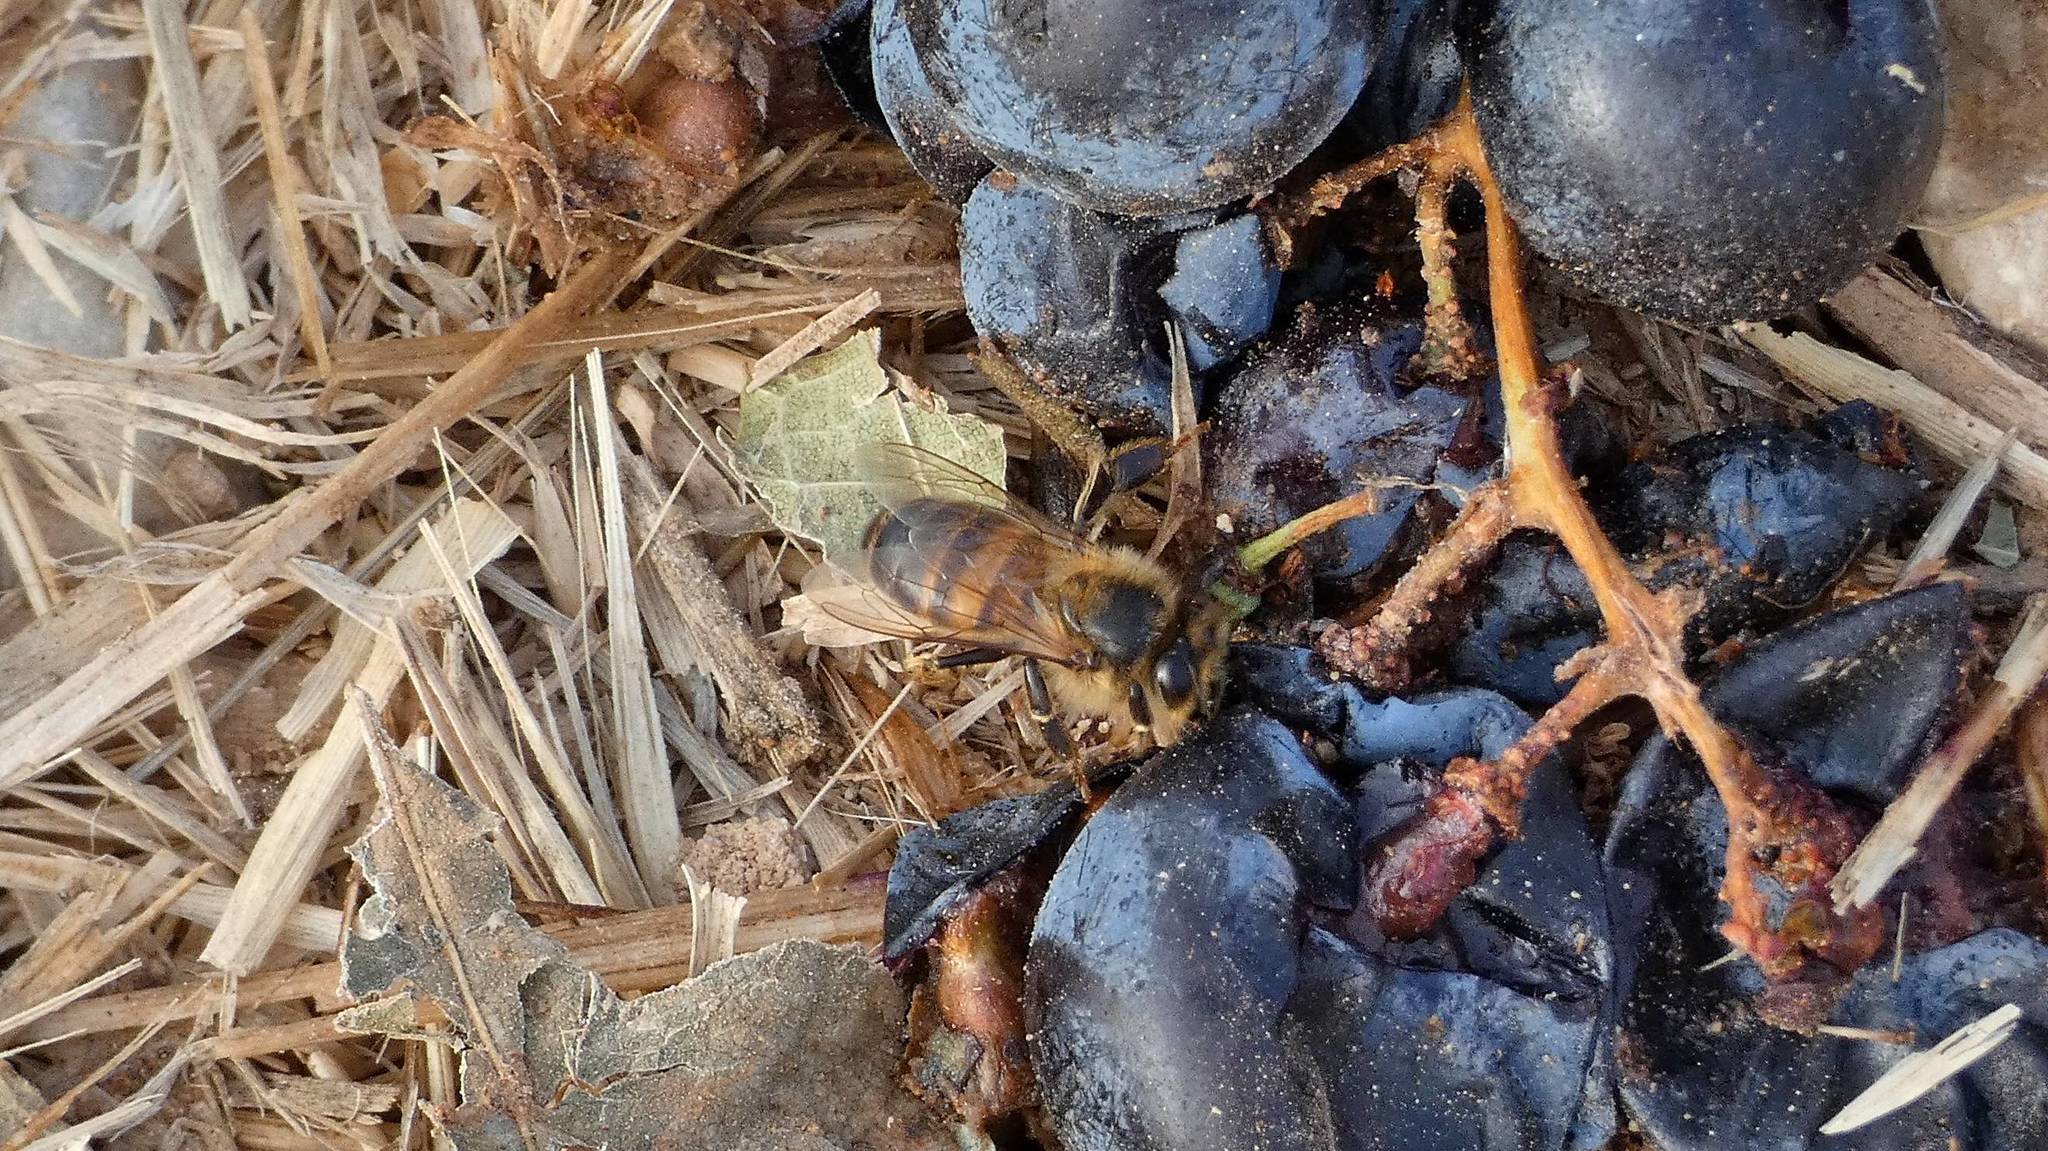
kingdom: Animalia
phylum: Arthropoda
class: Insecta
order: Hymenoptera
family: Apidae
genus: Apis
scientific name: Apis mellifera
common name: Honey bee
